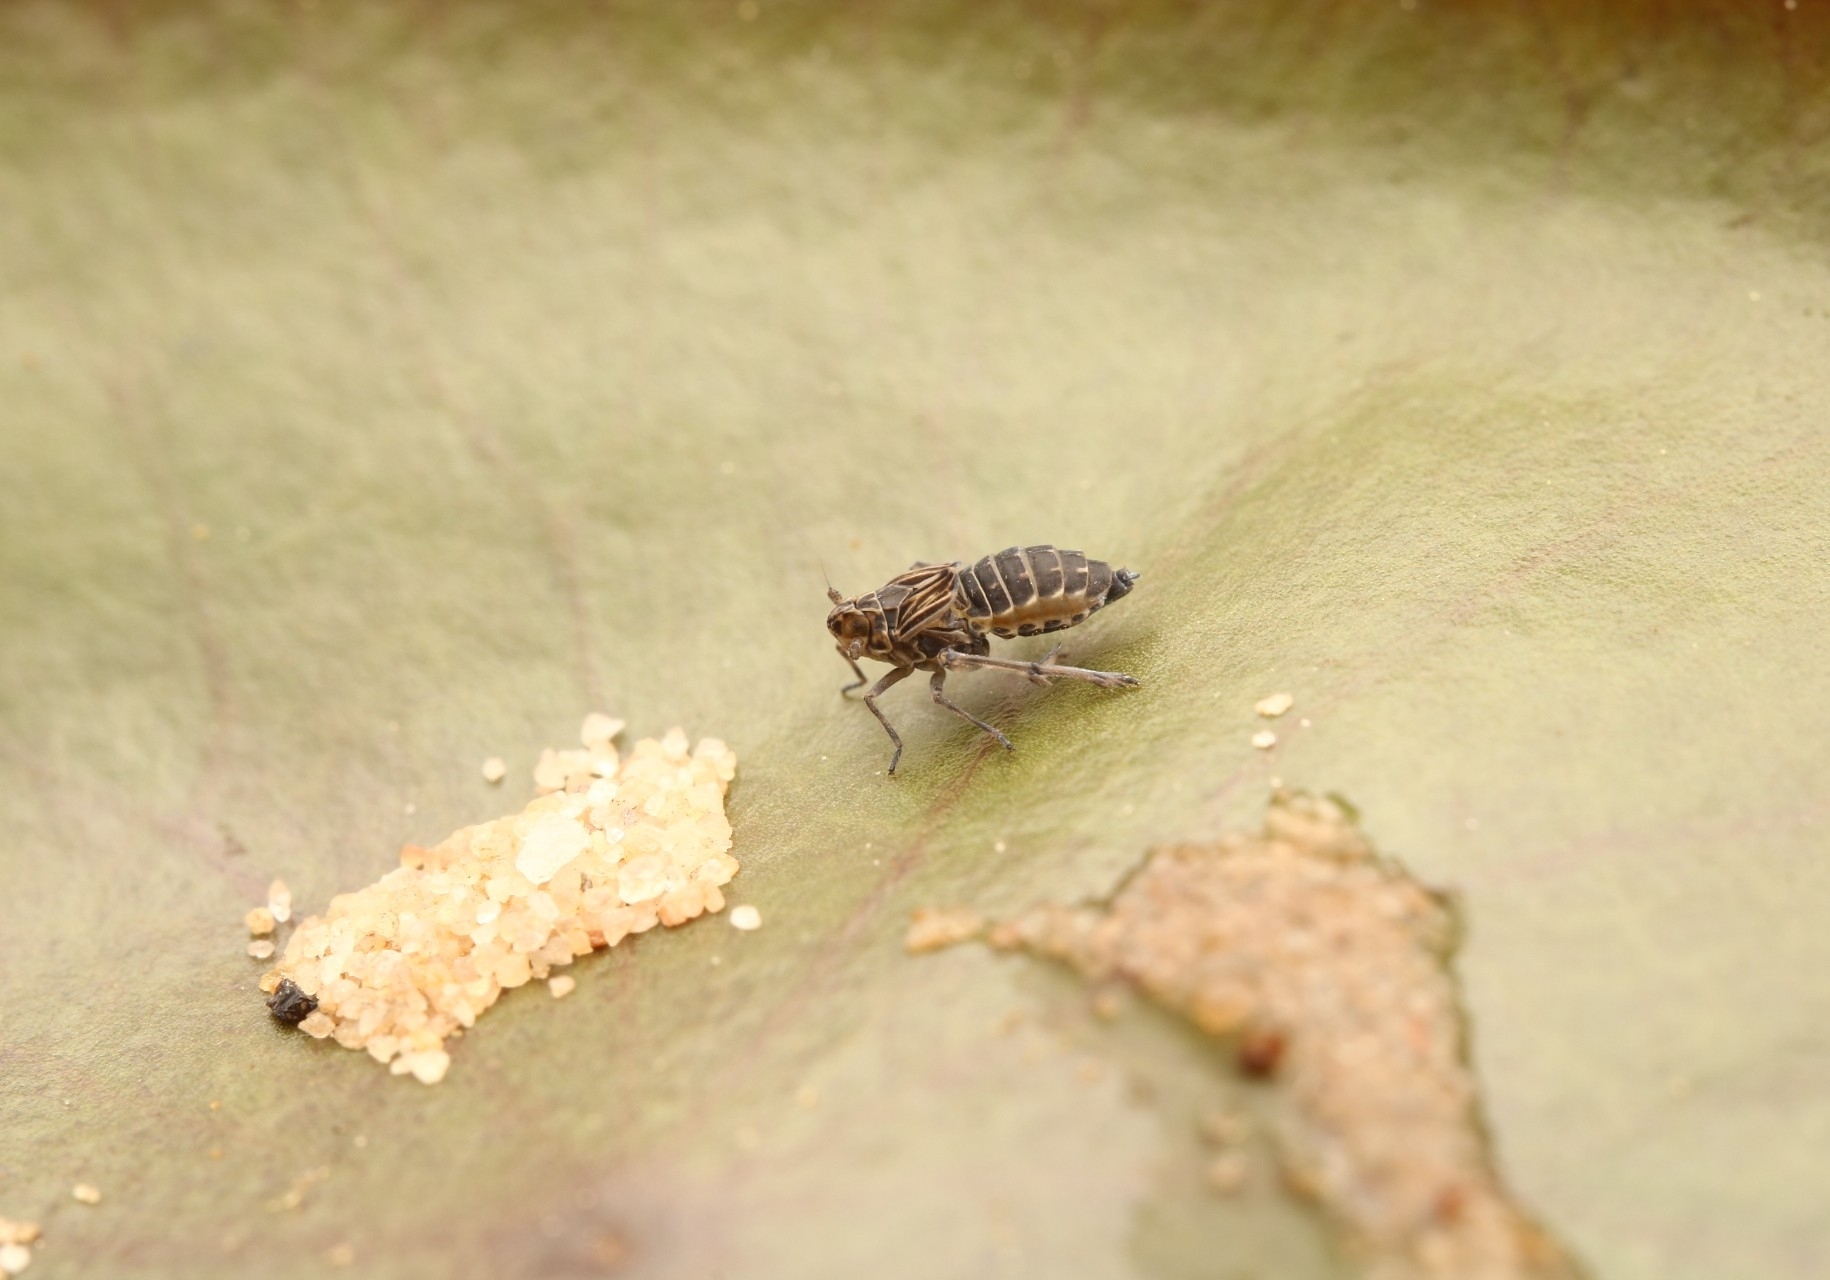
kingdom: Animalia
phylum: Arthropoda
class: Insecta
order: Hemiptera
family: Delphacidae
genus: Megamelus
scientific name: Megamelus davisi
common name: Planthopper
